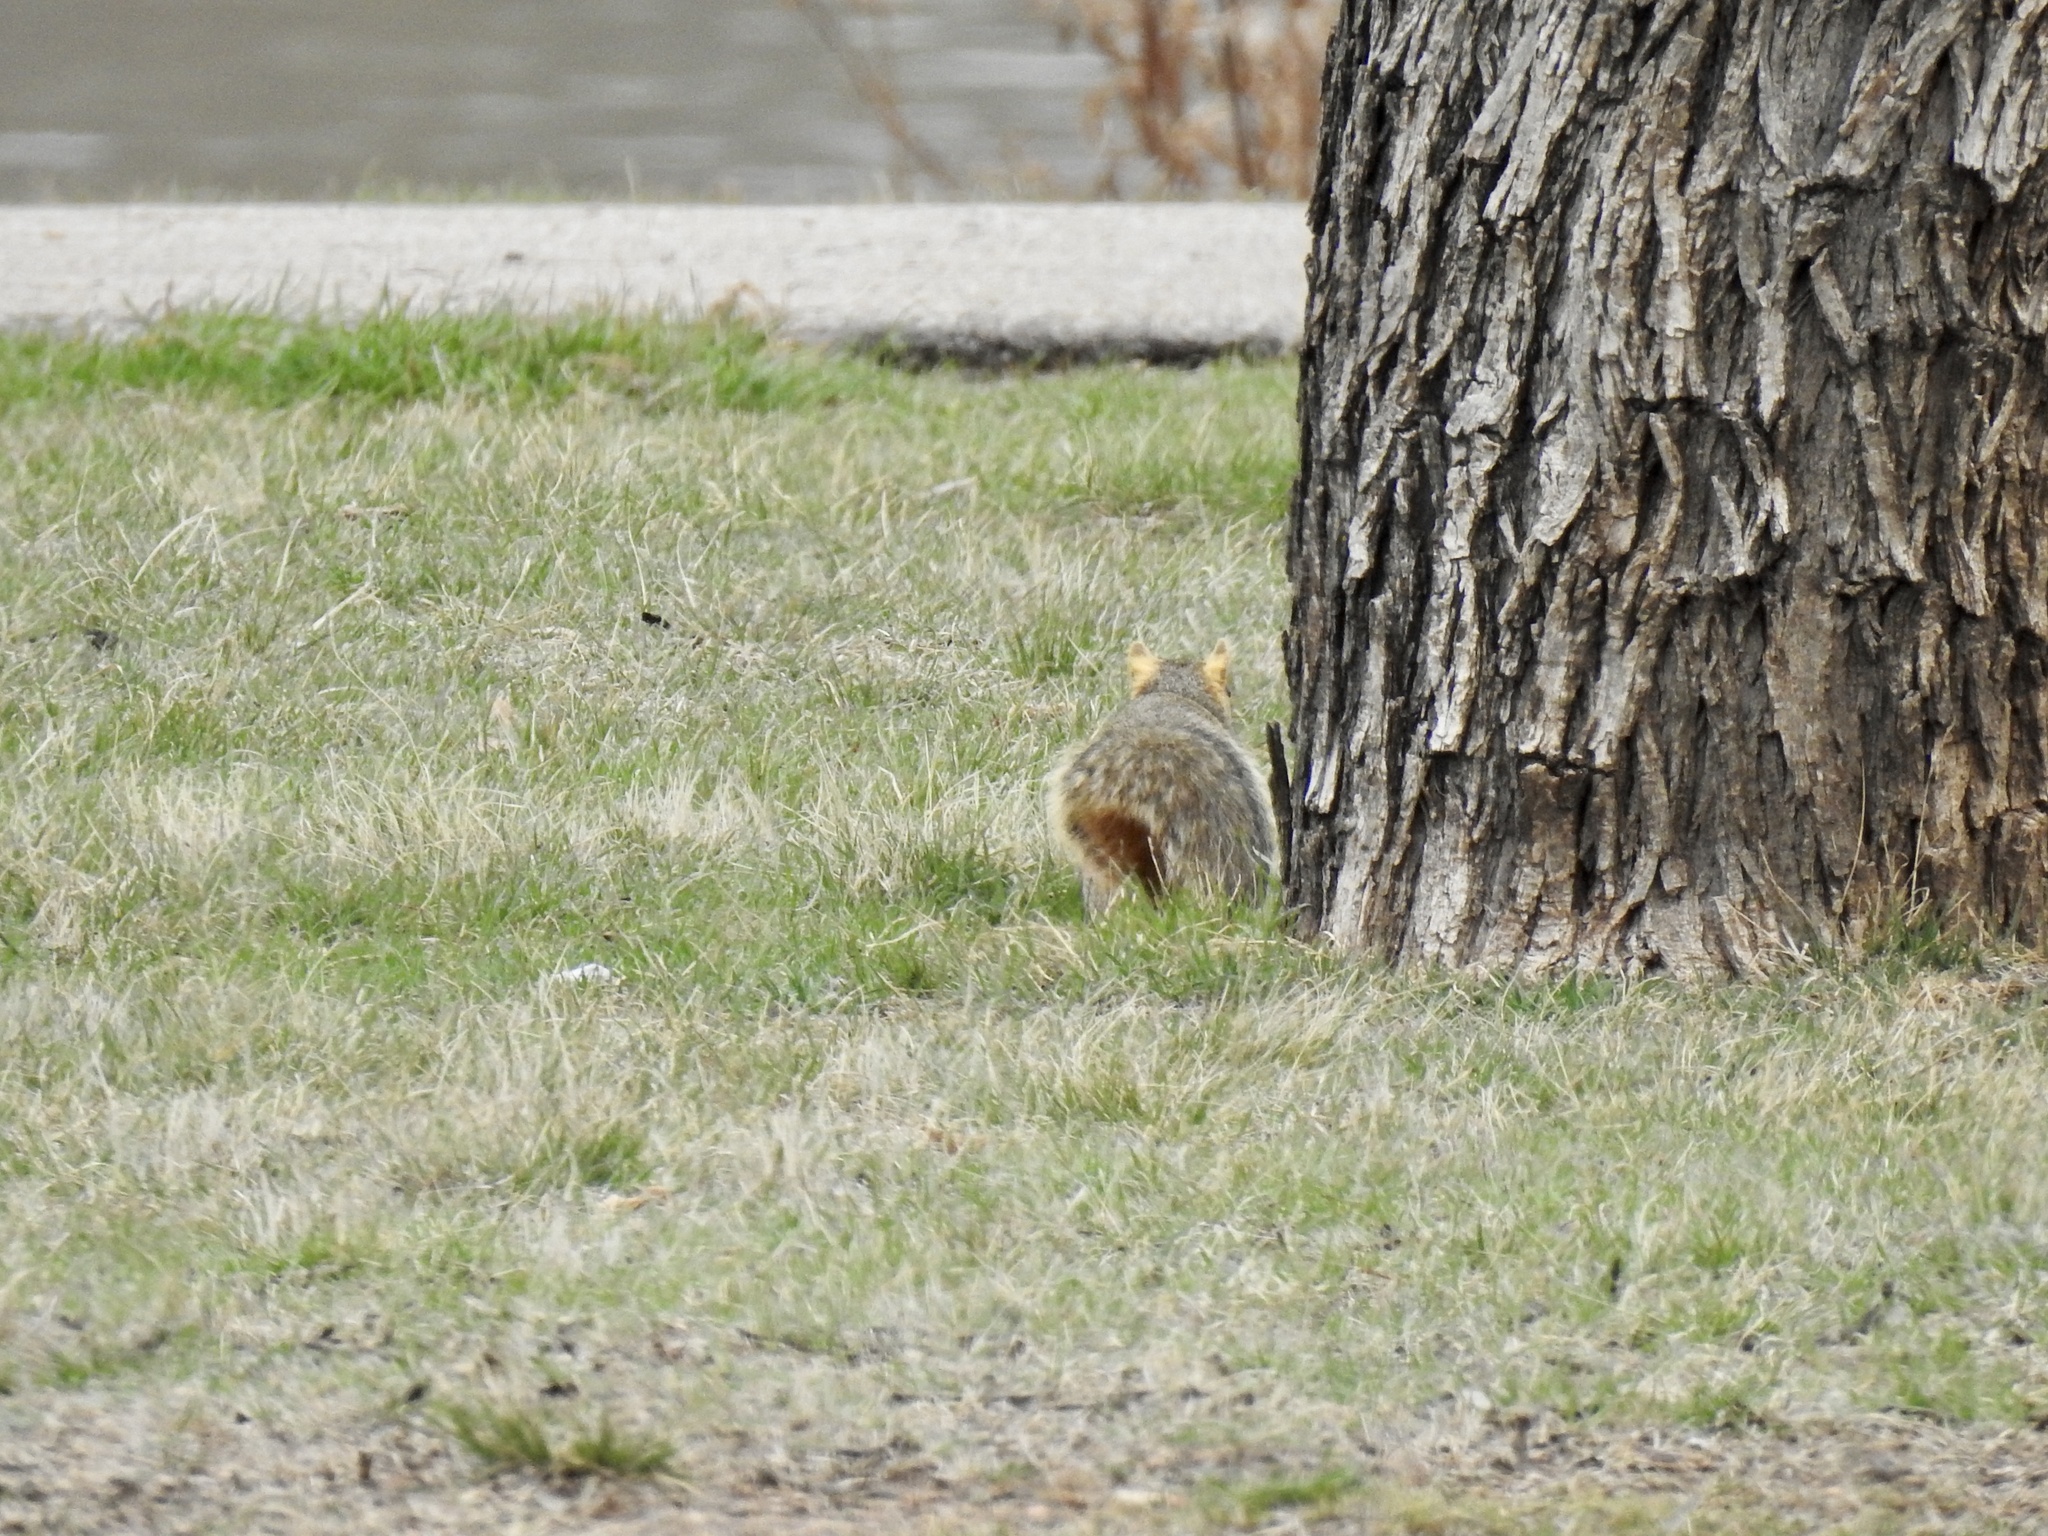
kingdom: Animalia
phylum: Chordata
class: Mammalia
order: Rodentia
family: Sciuridae
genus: Sciurus
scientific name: Sciurus niger
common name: Fox squirrel
